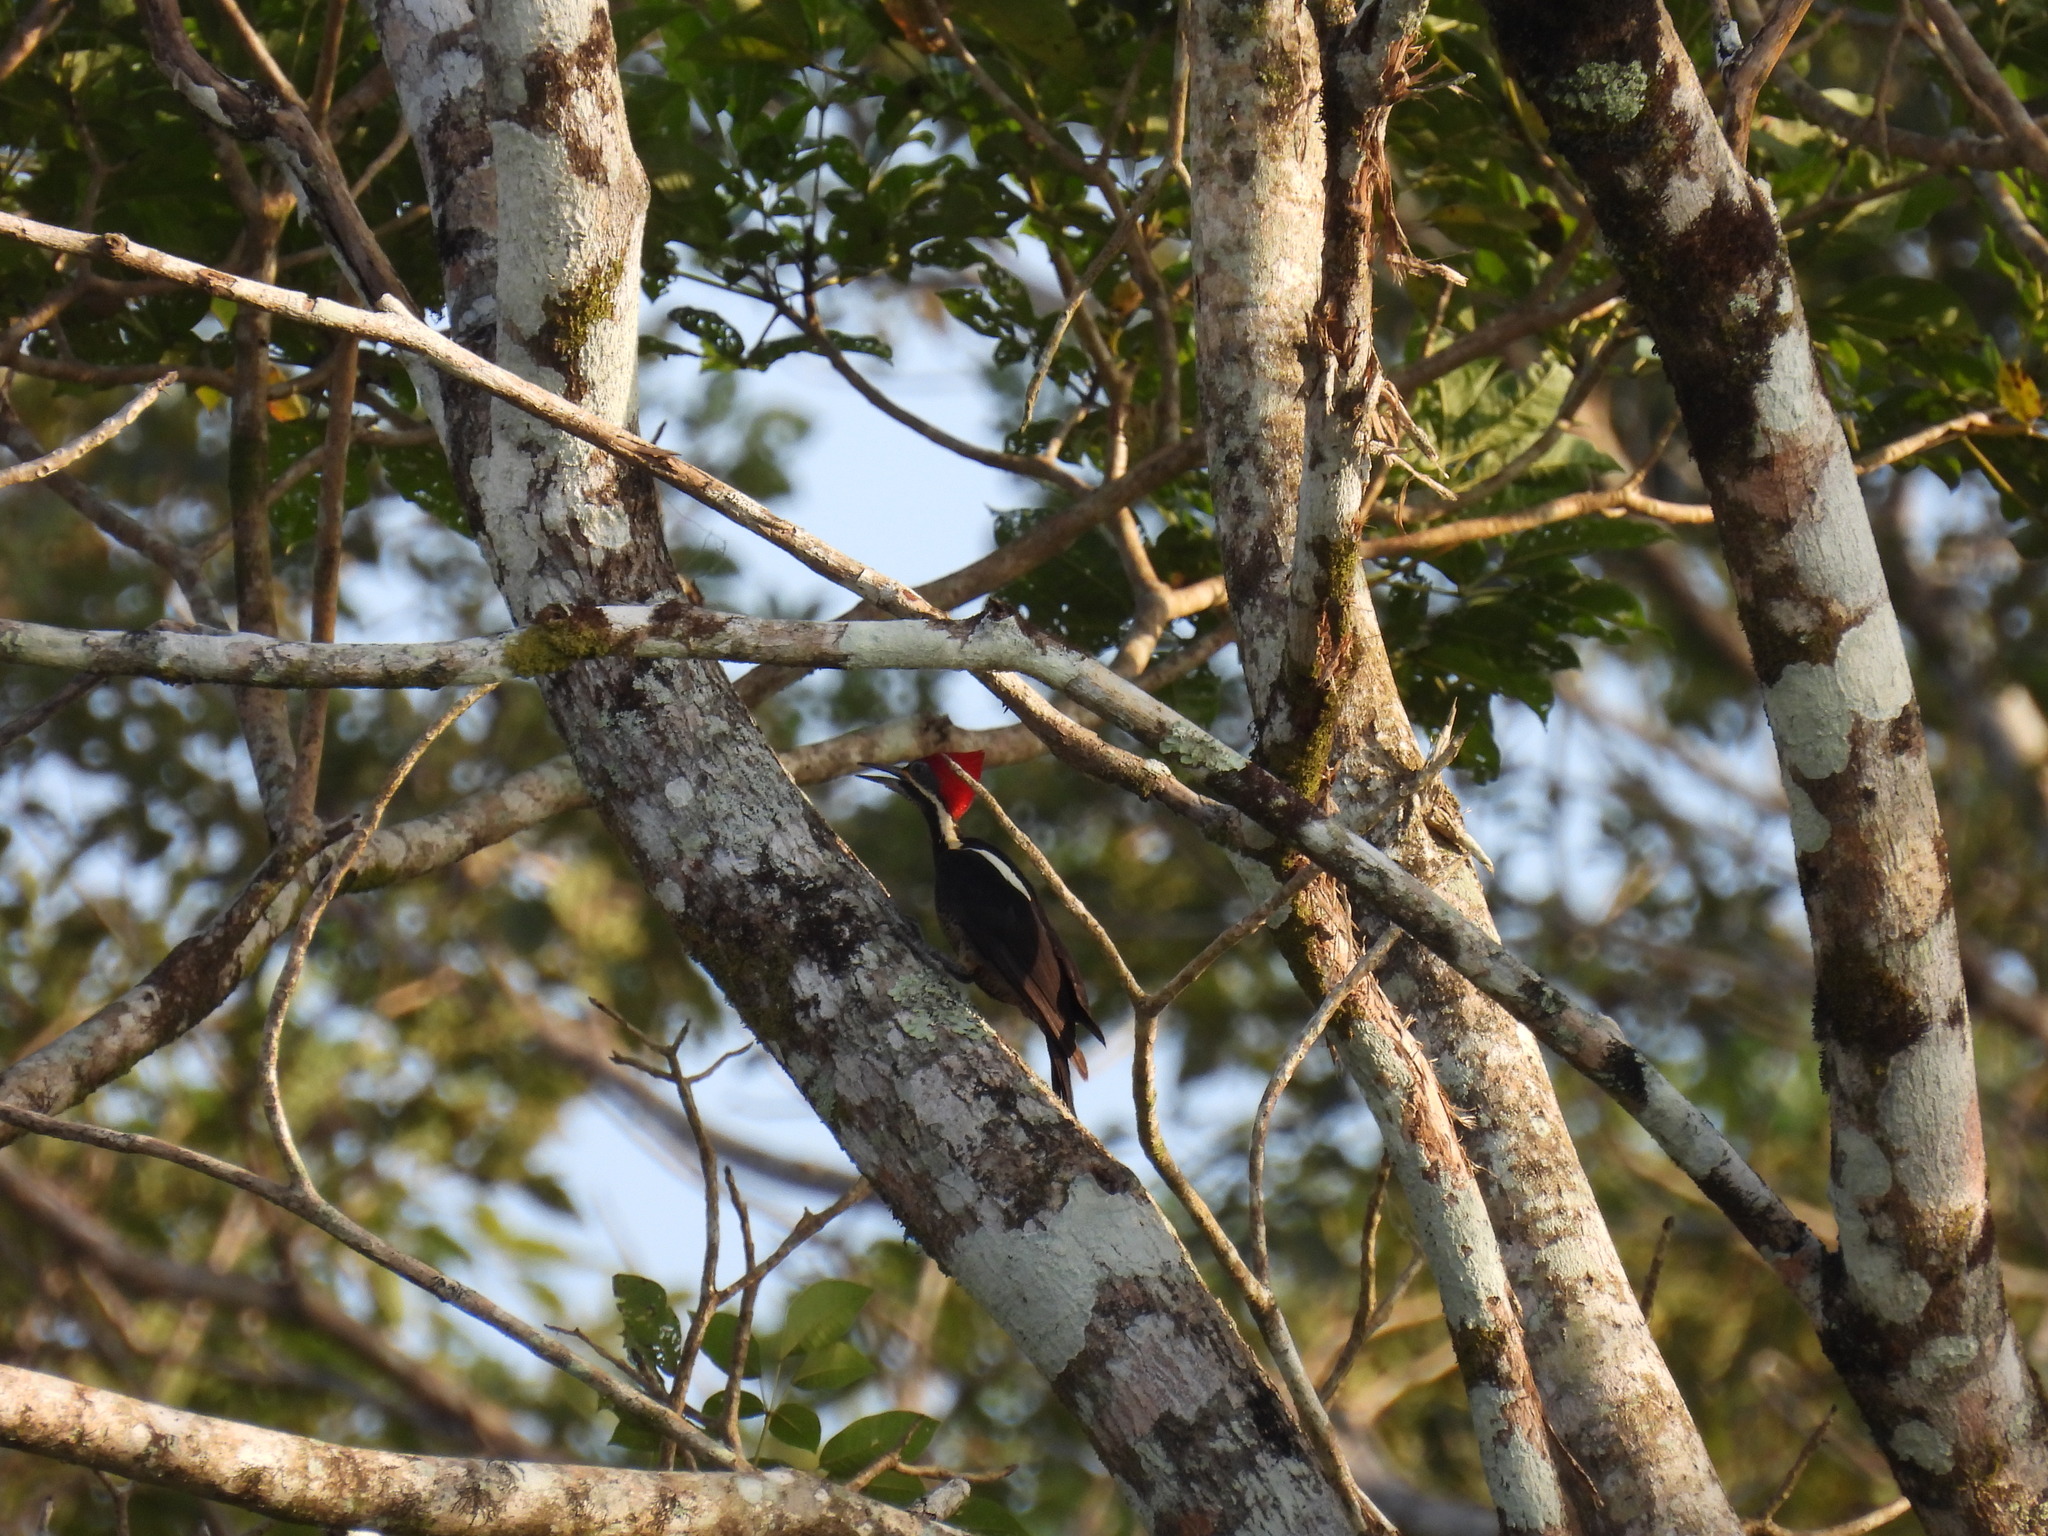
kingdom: Animalia
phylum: Chordata
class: Aves
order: Piciformes
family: Picidae
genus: Dryocopus
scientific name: Dryocopus lineatus
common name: Lineated woodpecker
